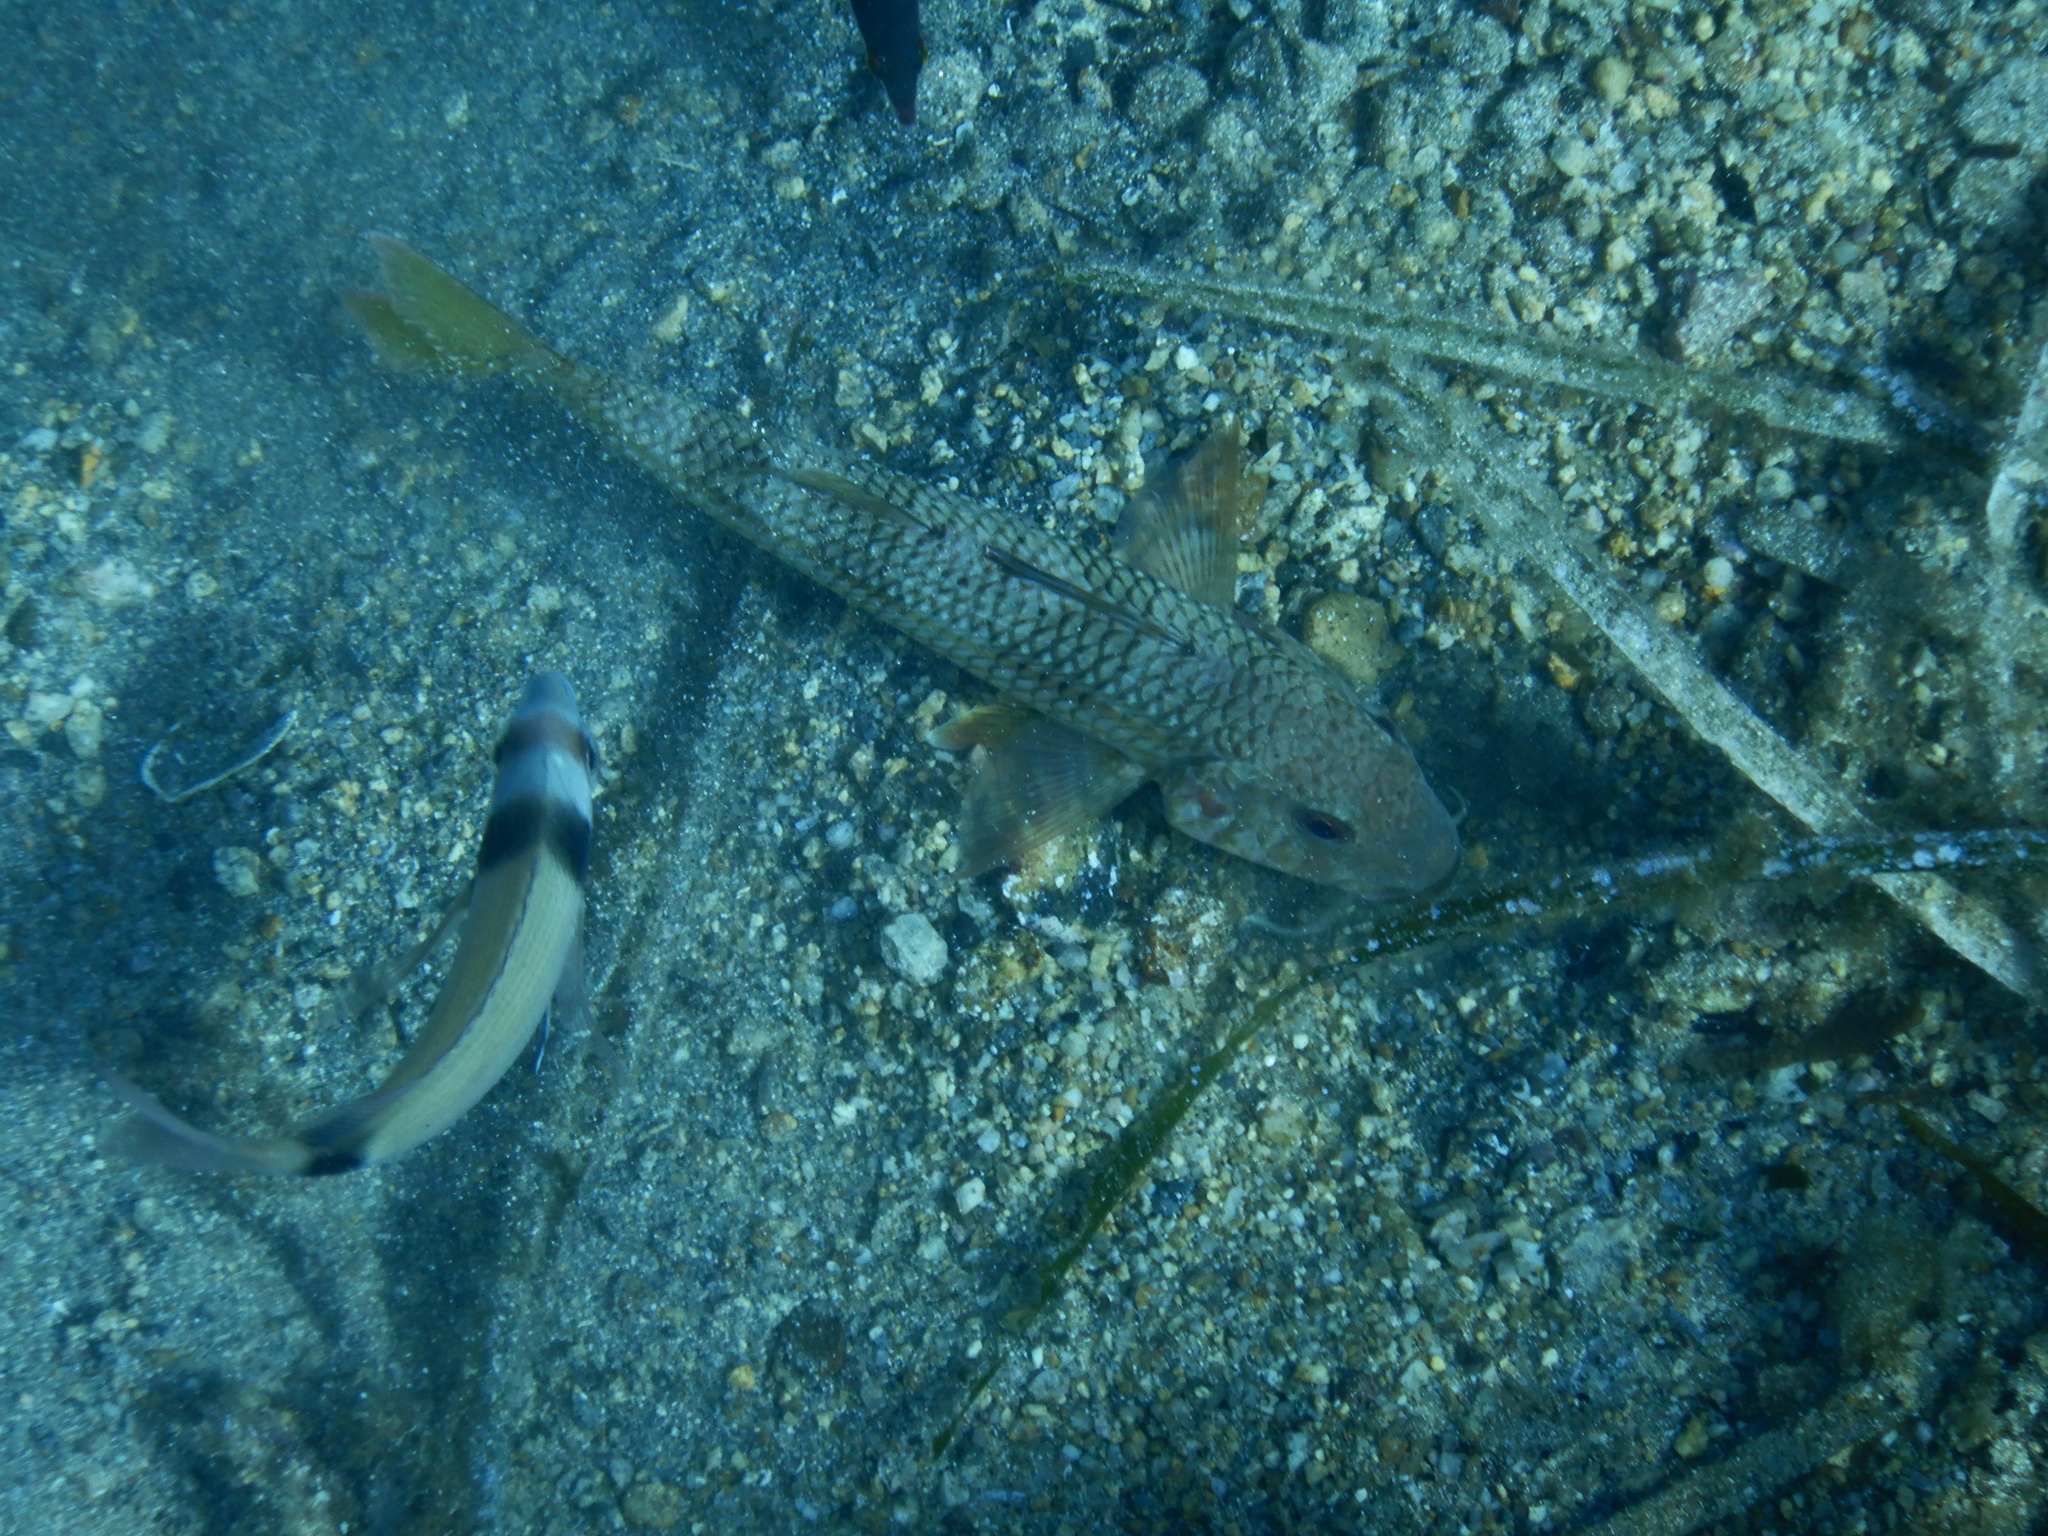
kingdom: Animalia
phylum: Chordata
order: Perciformes
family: Mullidae
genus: Mullus
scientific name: Mullus surmuletus
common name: Red mullet
